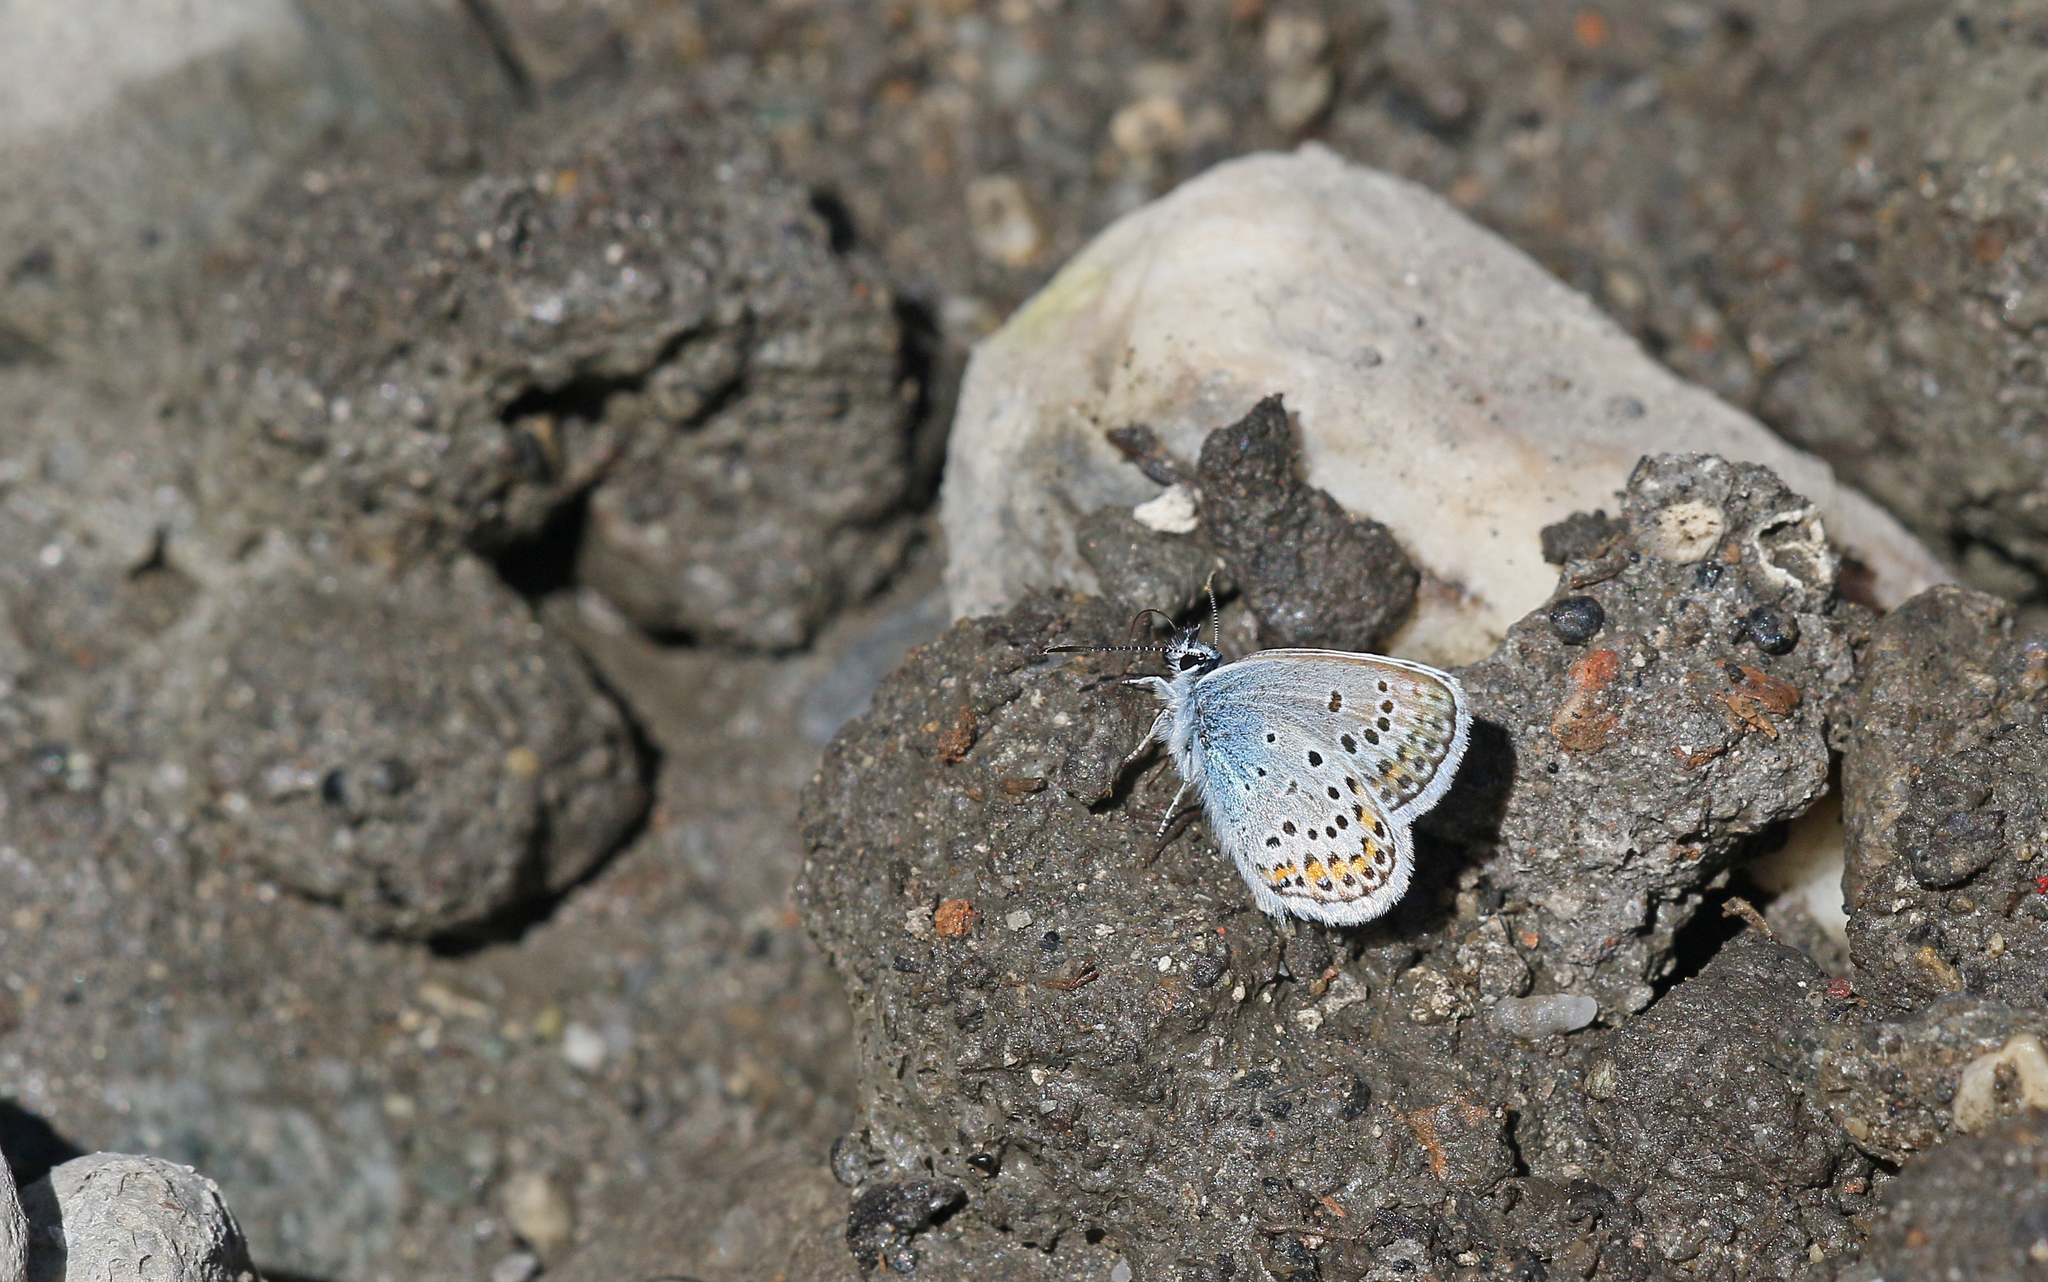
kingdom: Animalia
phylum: Arthropoda
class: Insecta
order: Lepidoptera
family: Lycaenidae
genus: Lycaeides
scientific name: Lycaeides idas
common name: Northern blue
